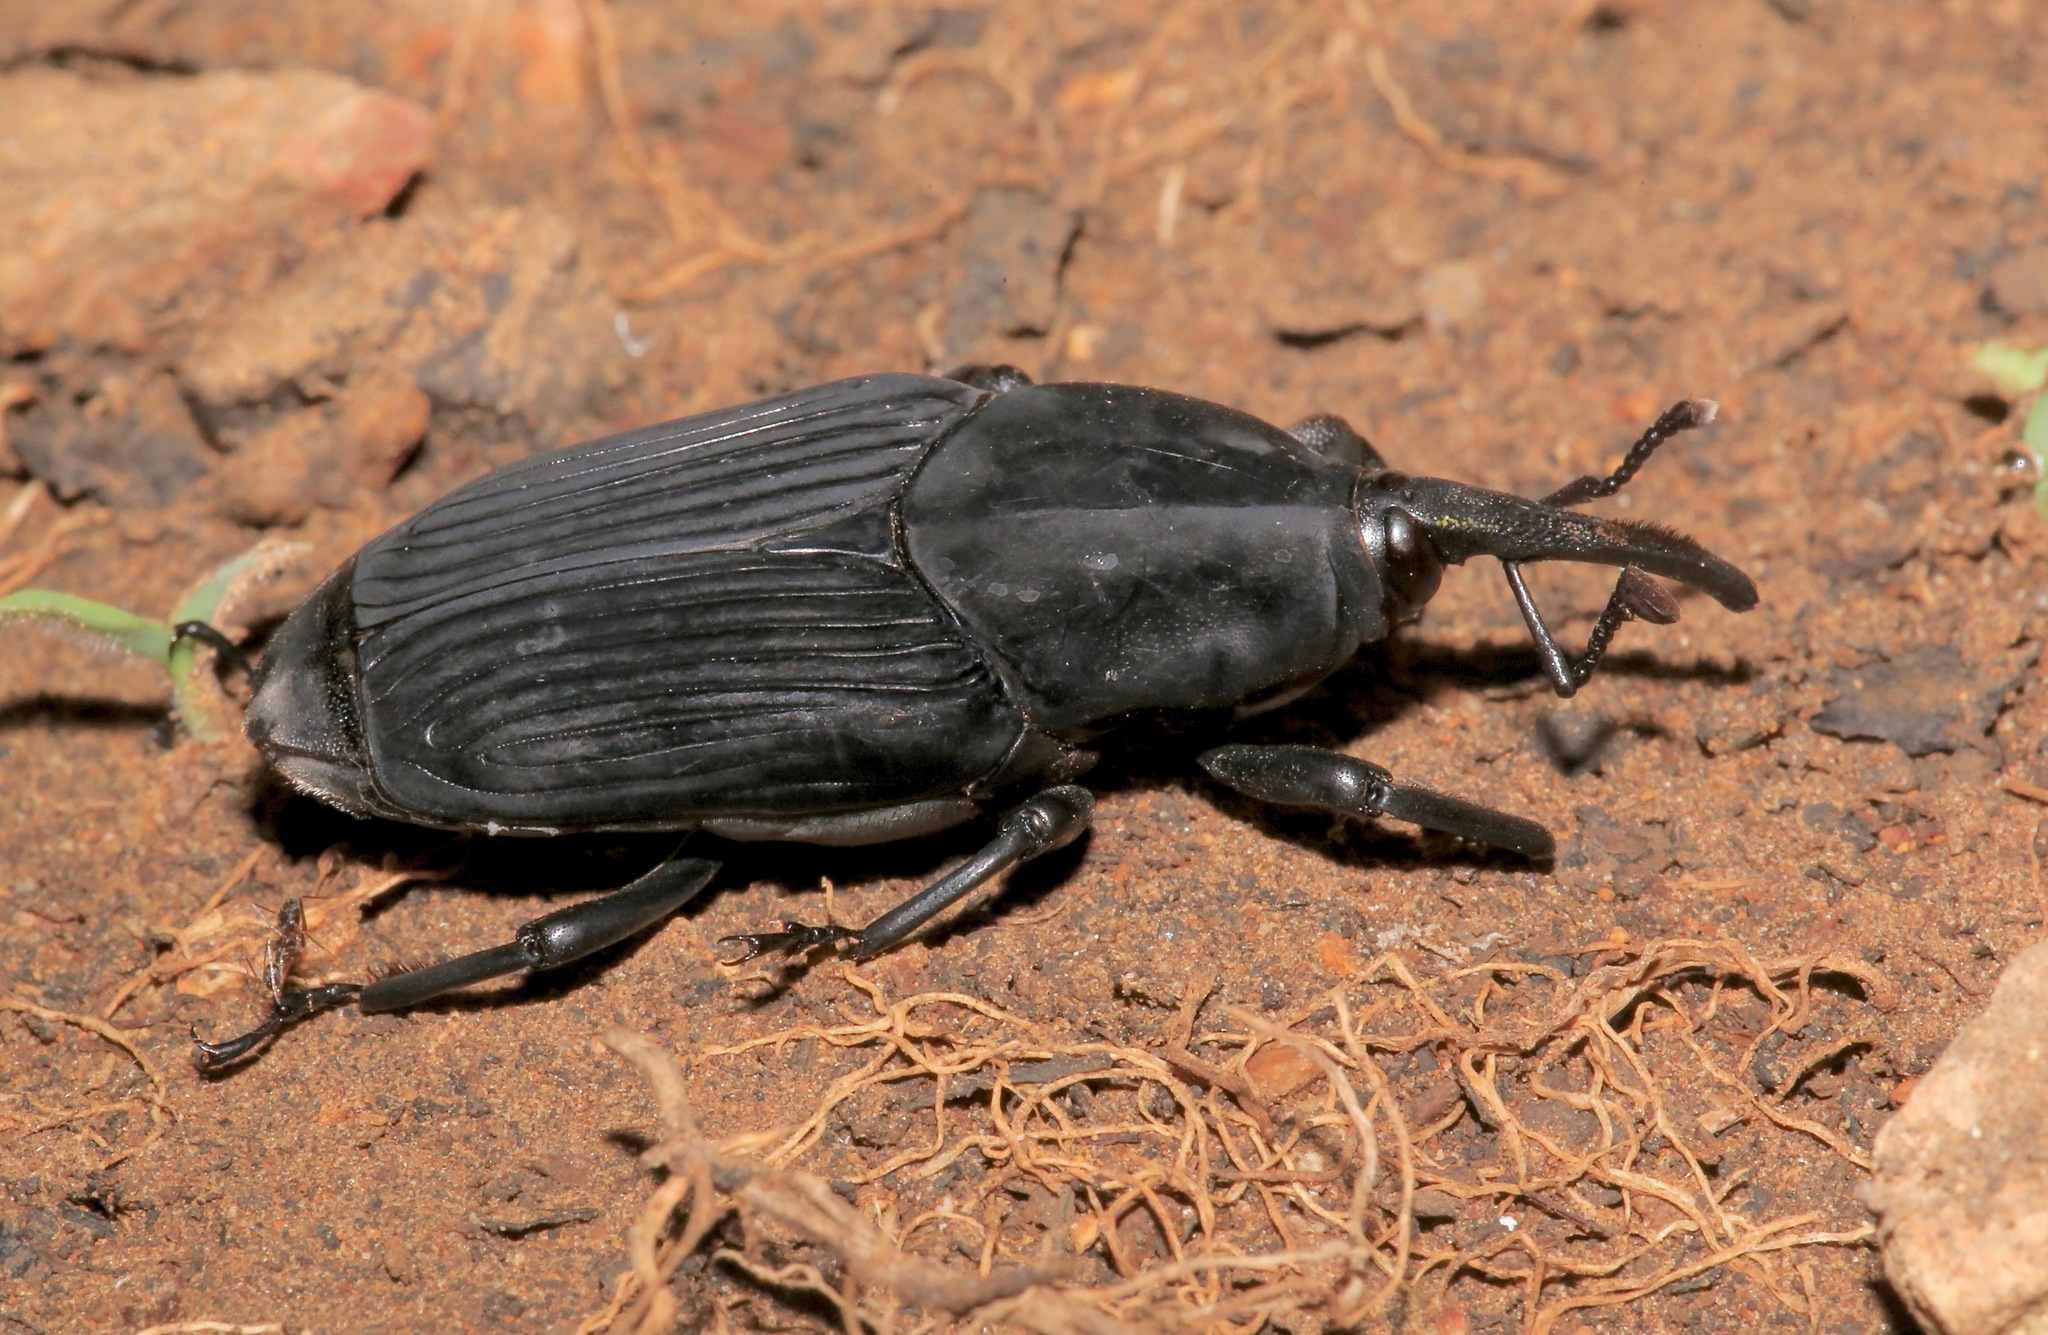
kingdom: Animalia
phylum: Arthropoda
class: Insecta
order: Coleoptera
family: Dryophthoridae
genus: Rhynchophorus
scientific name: Rhynchophorus palmarum
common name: Palm weevil
